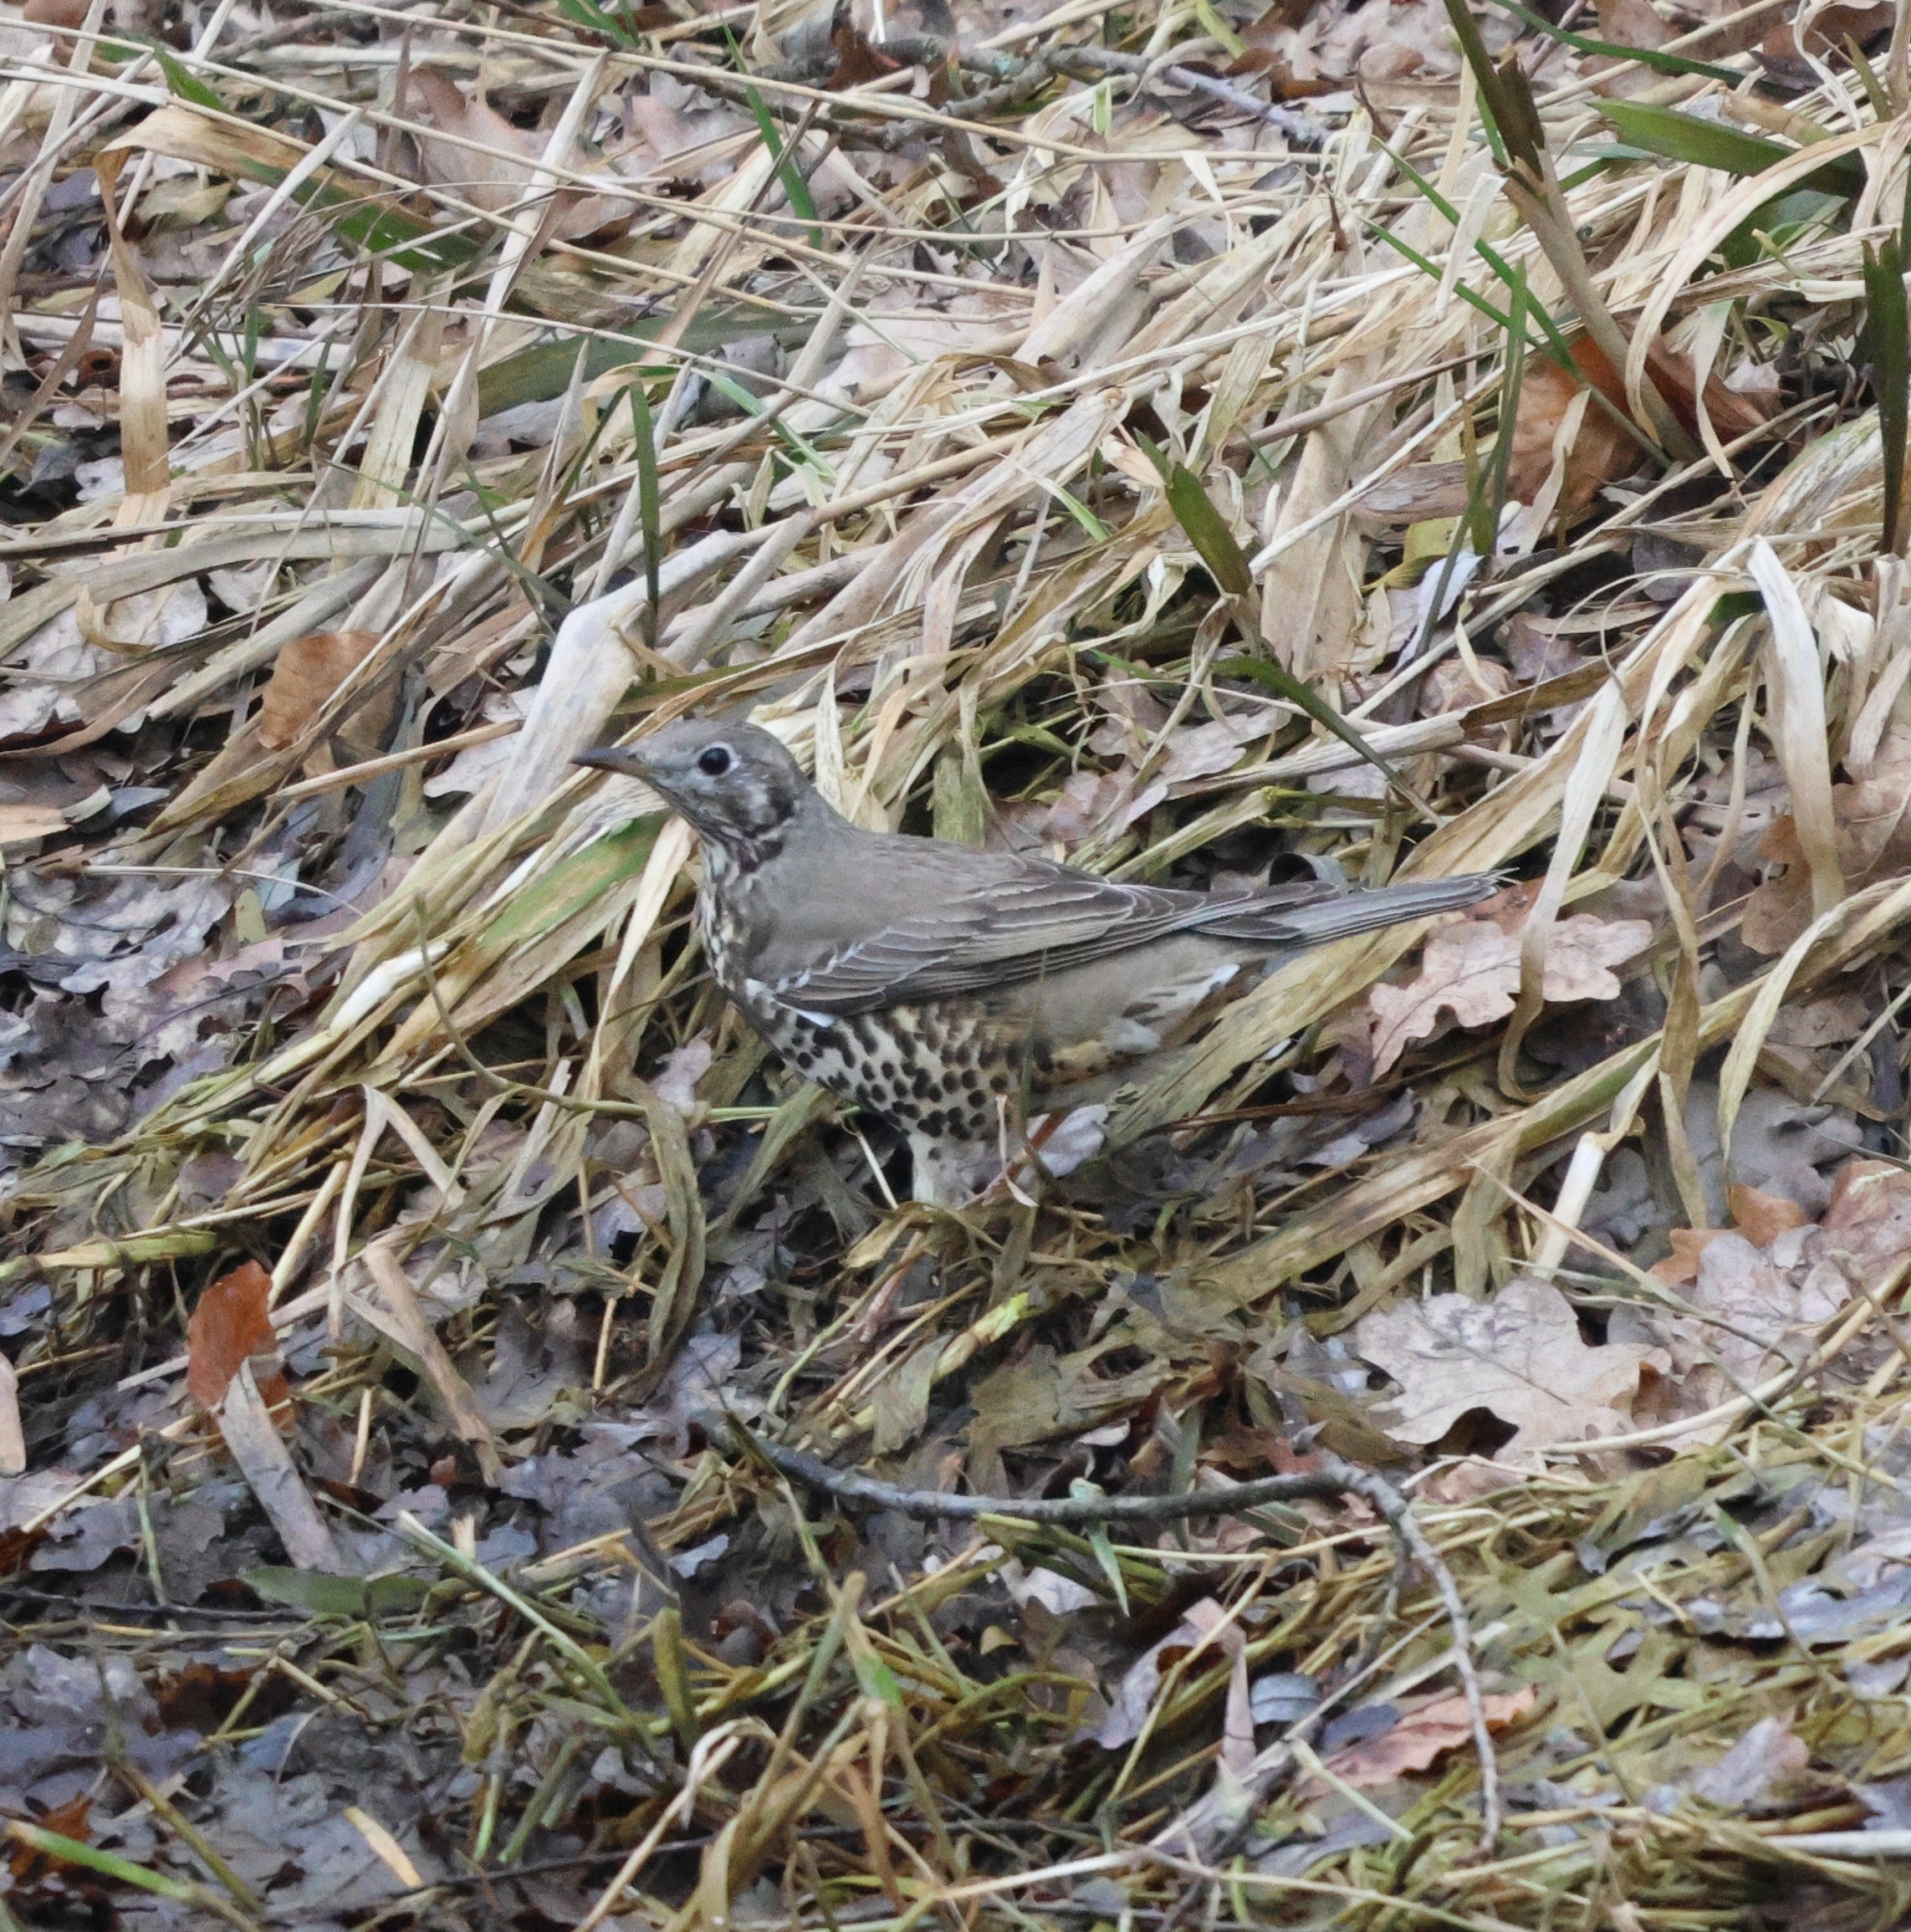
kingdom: Animalia
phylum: Chordata
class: Aves
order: Passeriformes
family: Turdidae
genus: Turdus
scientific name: Turdus viscivorus
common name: Mistle thrush
